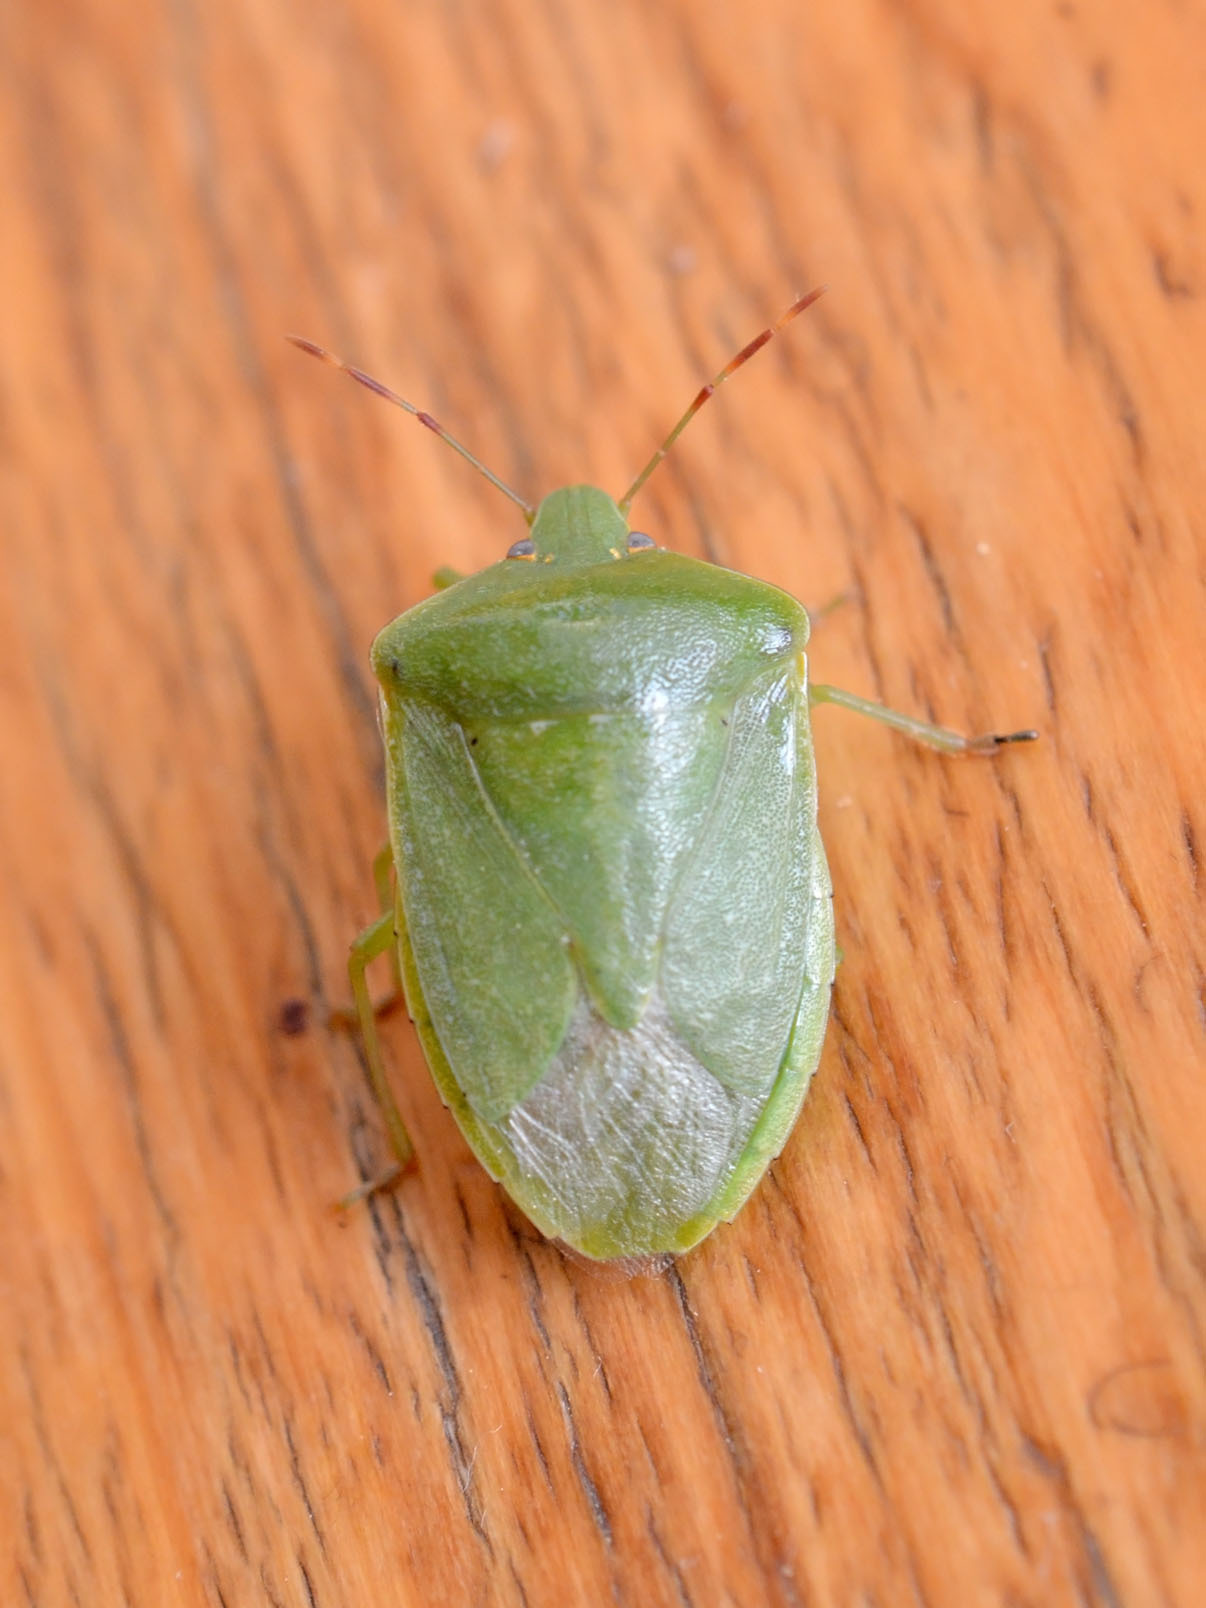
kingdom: Animalia
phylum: Arthropoda
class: Insecta
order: Hemiptera
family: Pentatomidae
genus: Nezara
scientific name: Nezara viridula
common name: Southern green stink bug
